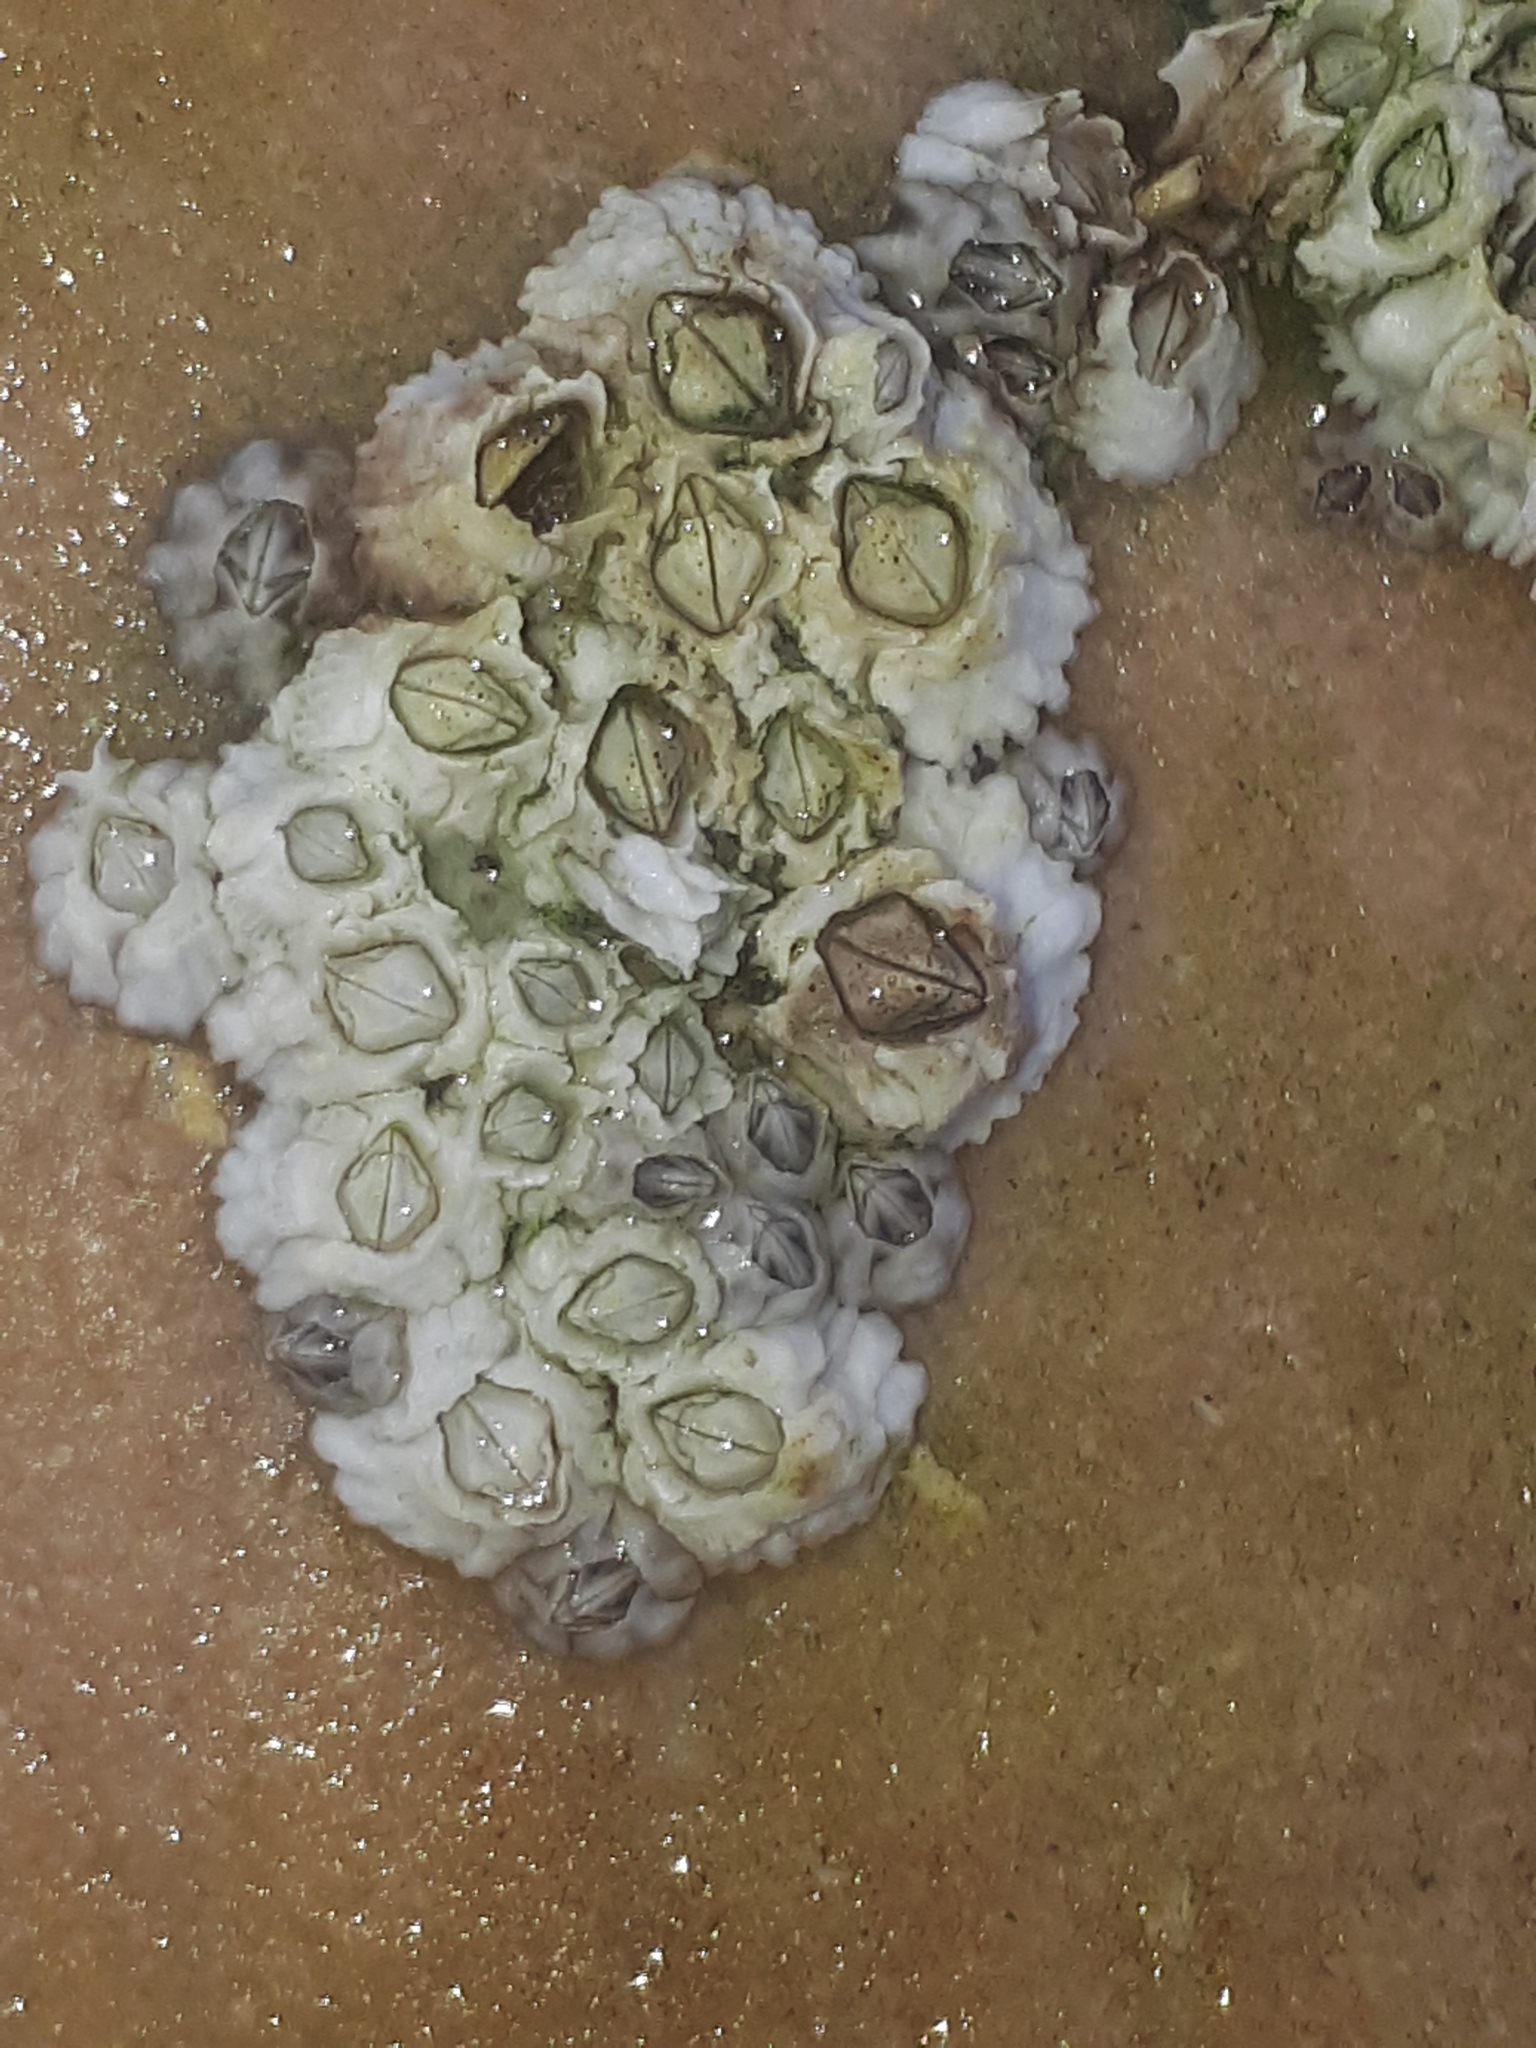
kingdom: Animalia
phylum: Arthropoda
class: Maxillopoda
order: Sessilia
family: Archaeobalanidae
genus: Semibalanus
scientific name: Semibalanus balanoides
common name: Acorn barnacle
